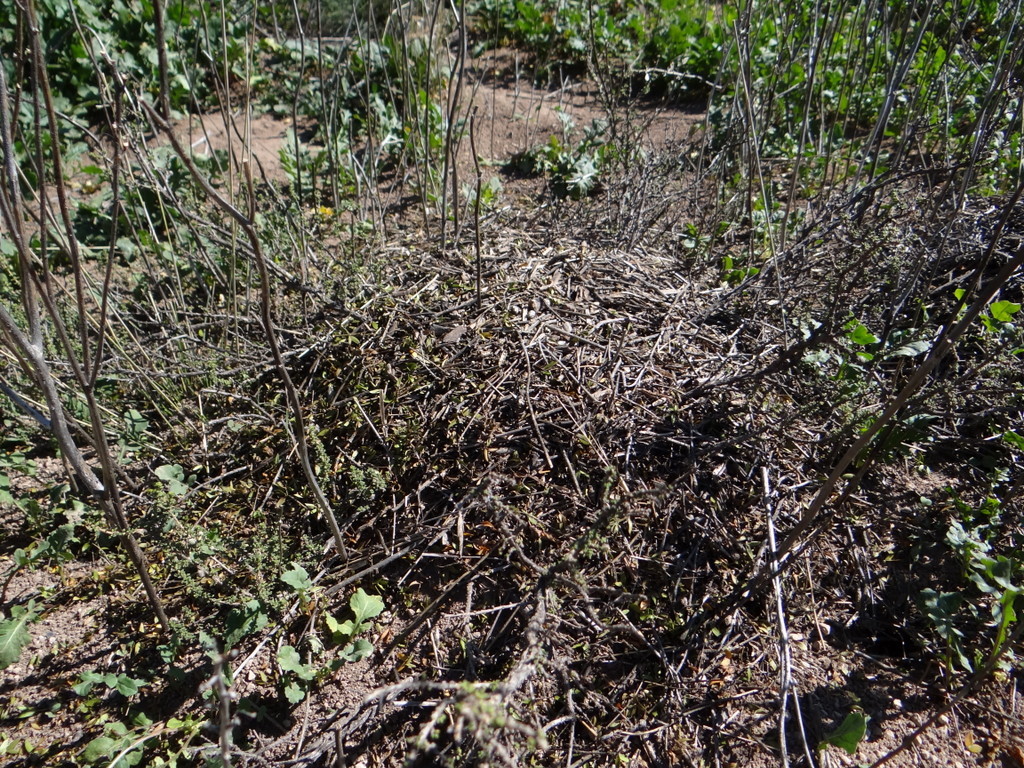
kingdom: Animalia
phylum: Arthropoda
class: Insecta
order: Hymenoptera
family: Formicidae
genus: Acromyrmex
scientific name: Acromyrmex lobicornis
